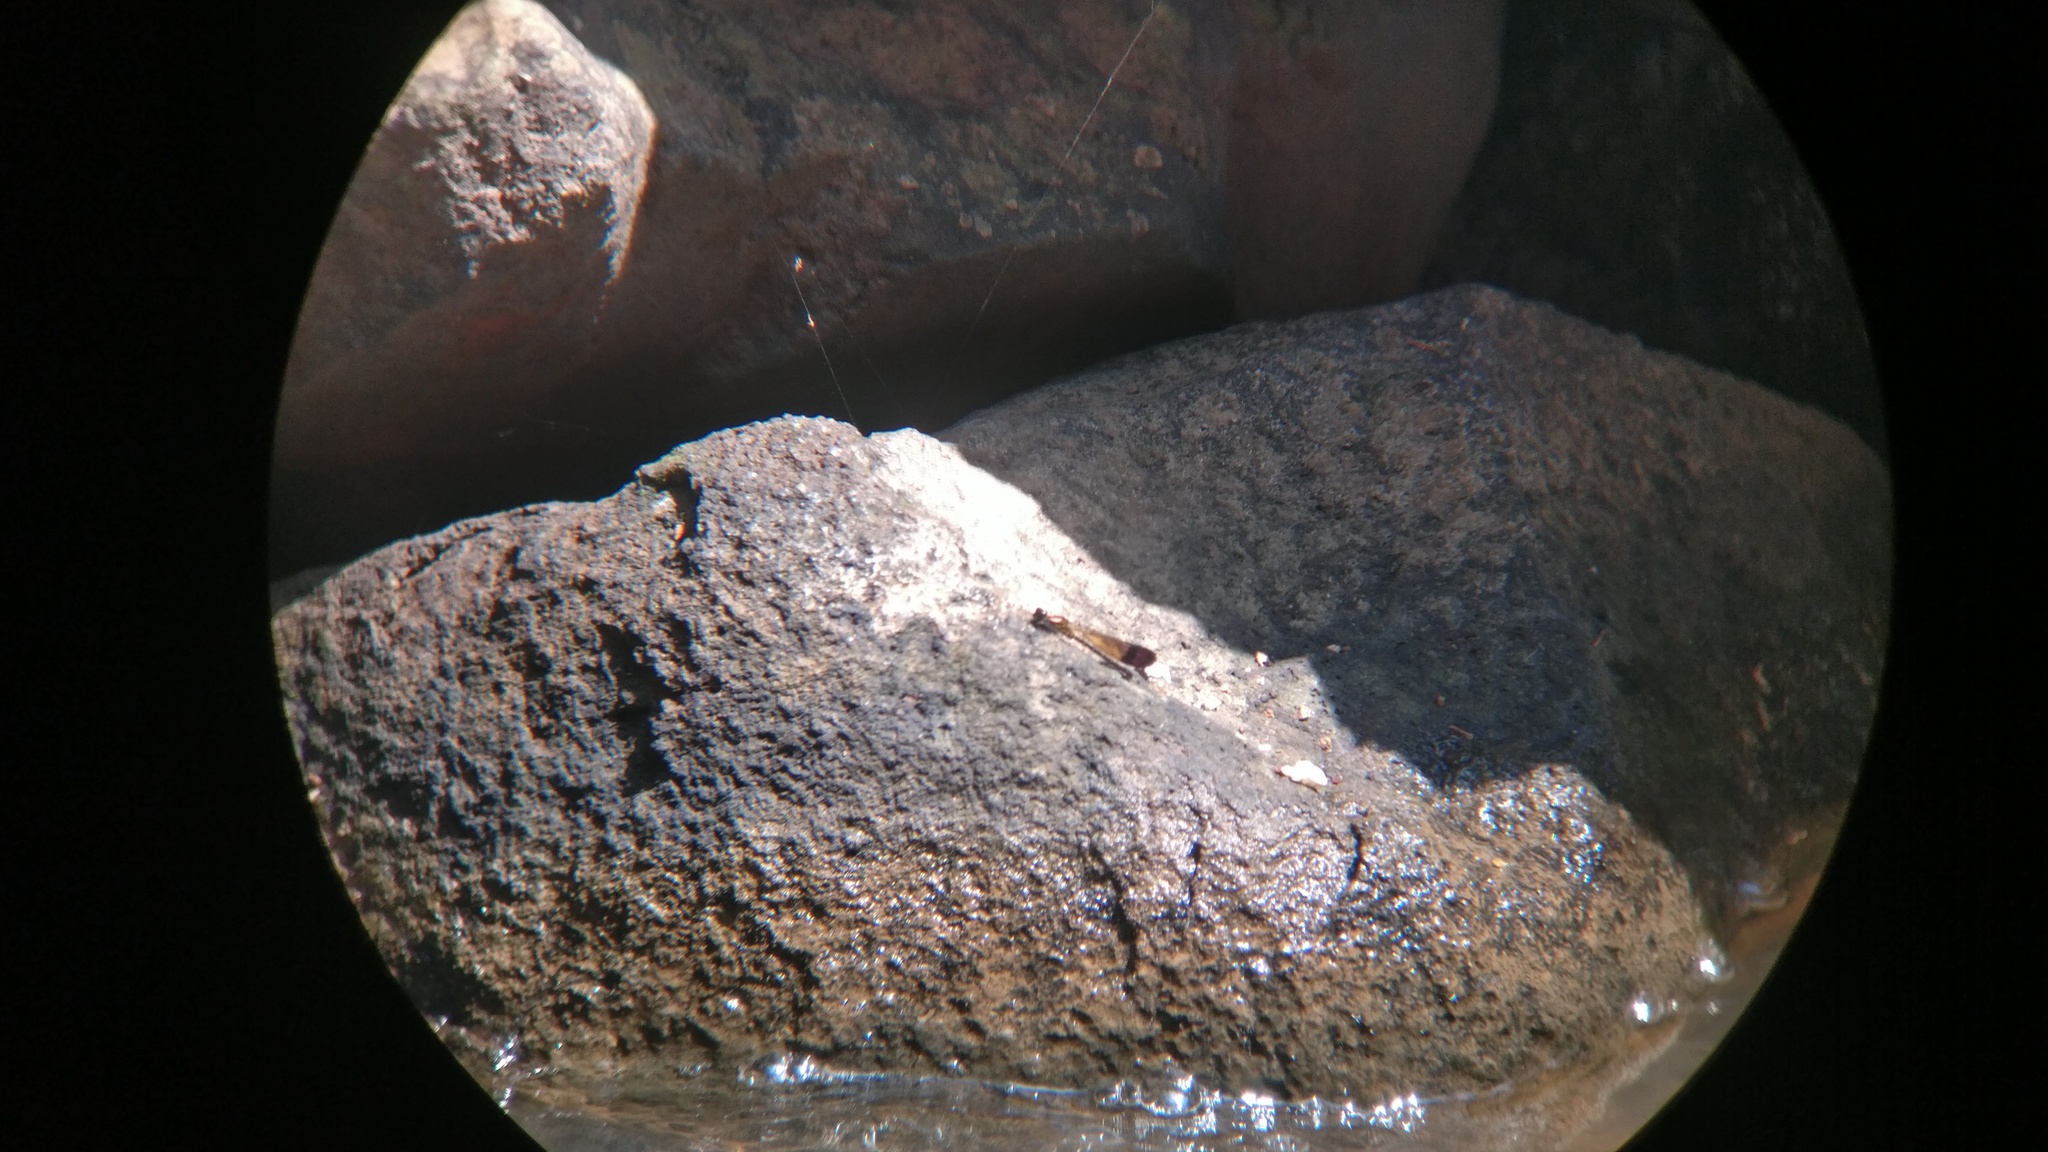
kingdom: Animalia
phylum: Arthropoda
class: Insecta
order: Odonata
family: Chlorocyphidae
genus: Heliocypha
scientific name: Heliocypha bisignata
